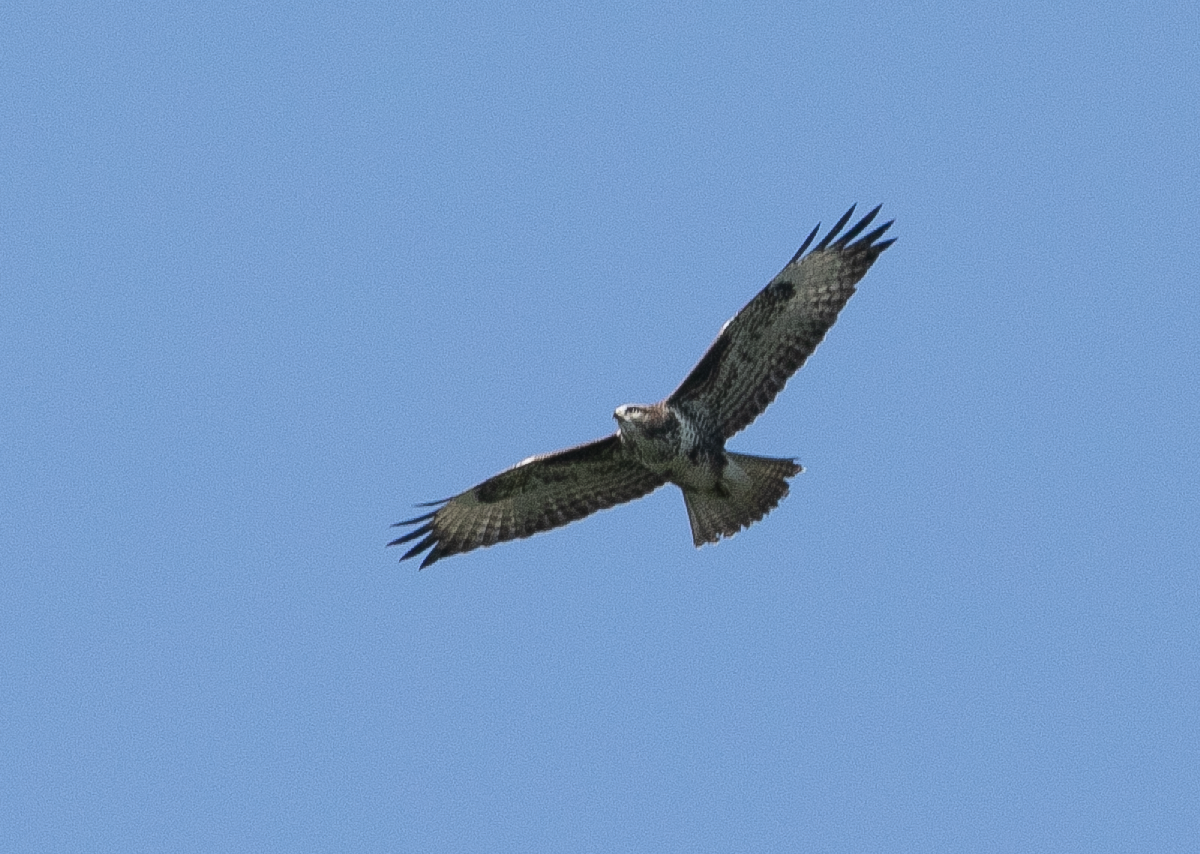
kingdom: Animalia
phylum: Chordata
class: Aves
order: Accipitriformes
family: Accipitridae
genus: Buteo
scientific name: Buteo buteo
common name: Common buzzard
